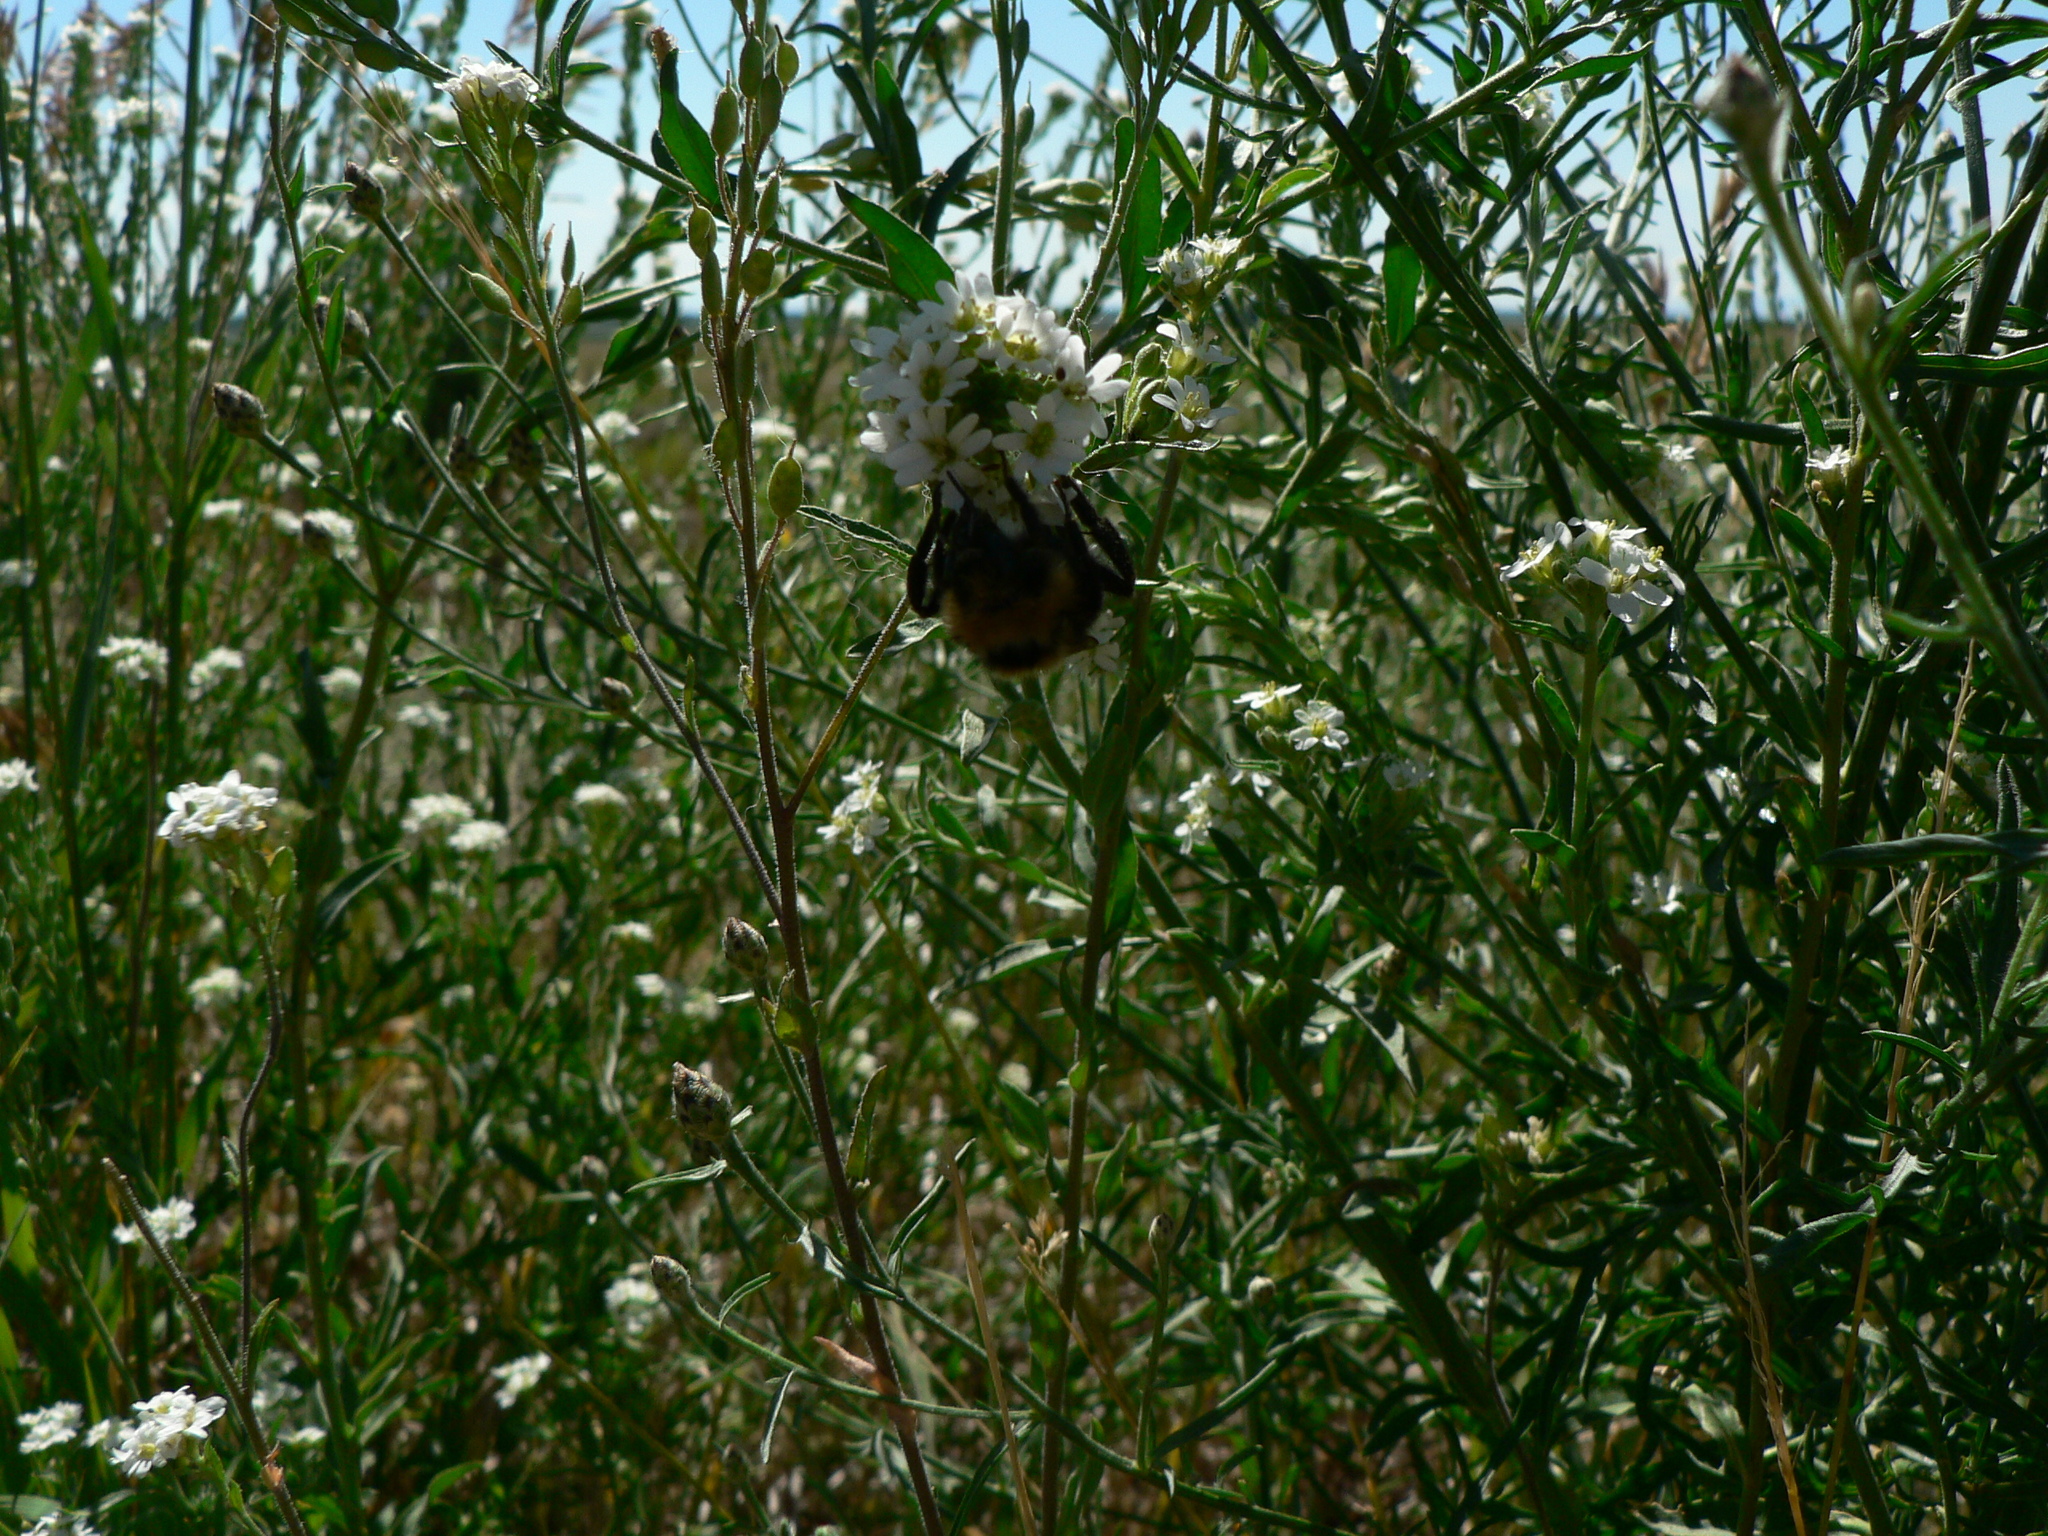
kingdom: Animalia
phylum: Arthropoda
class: Insecta
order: Hymenoptera
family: Apidae
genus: Bombus
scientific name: Bombus insularis
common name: Indiscriminate cuckoo bumble bee
